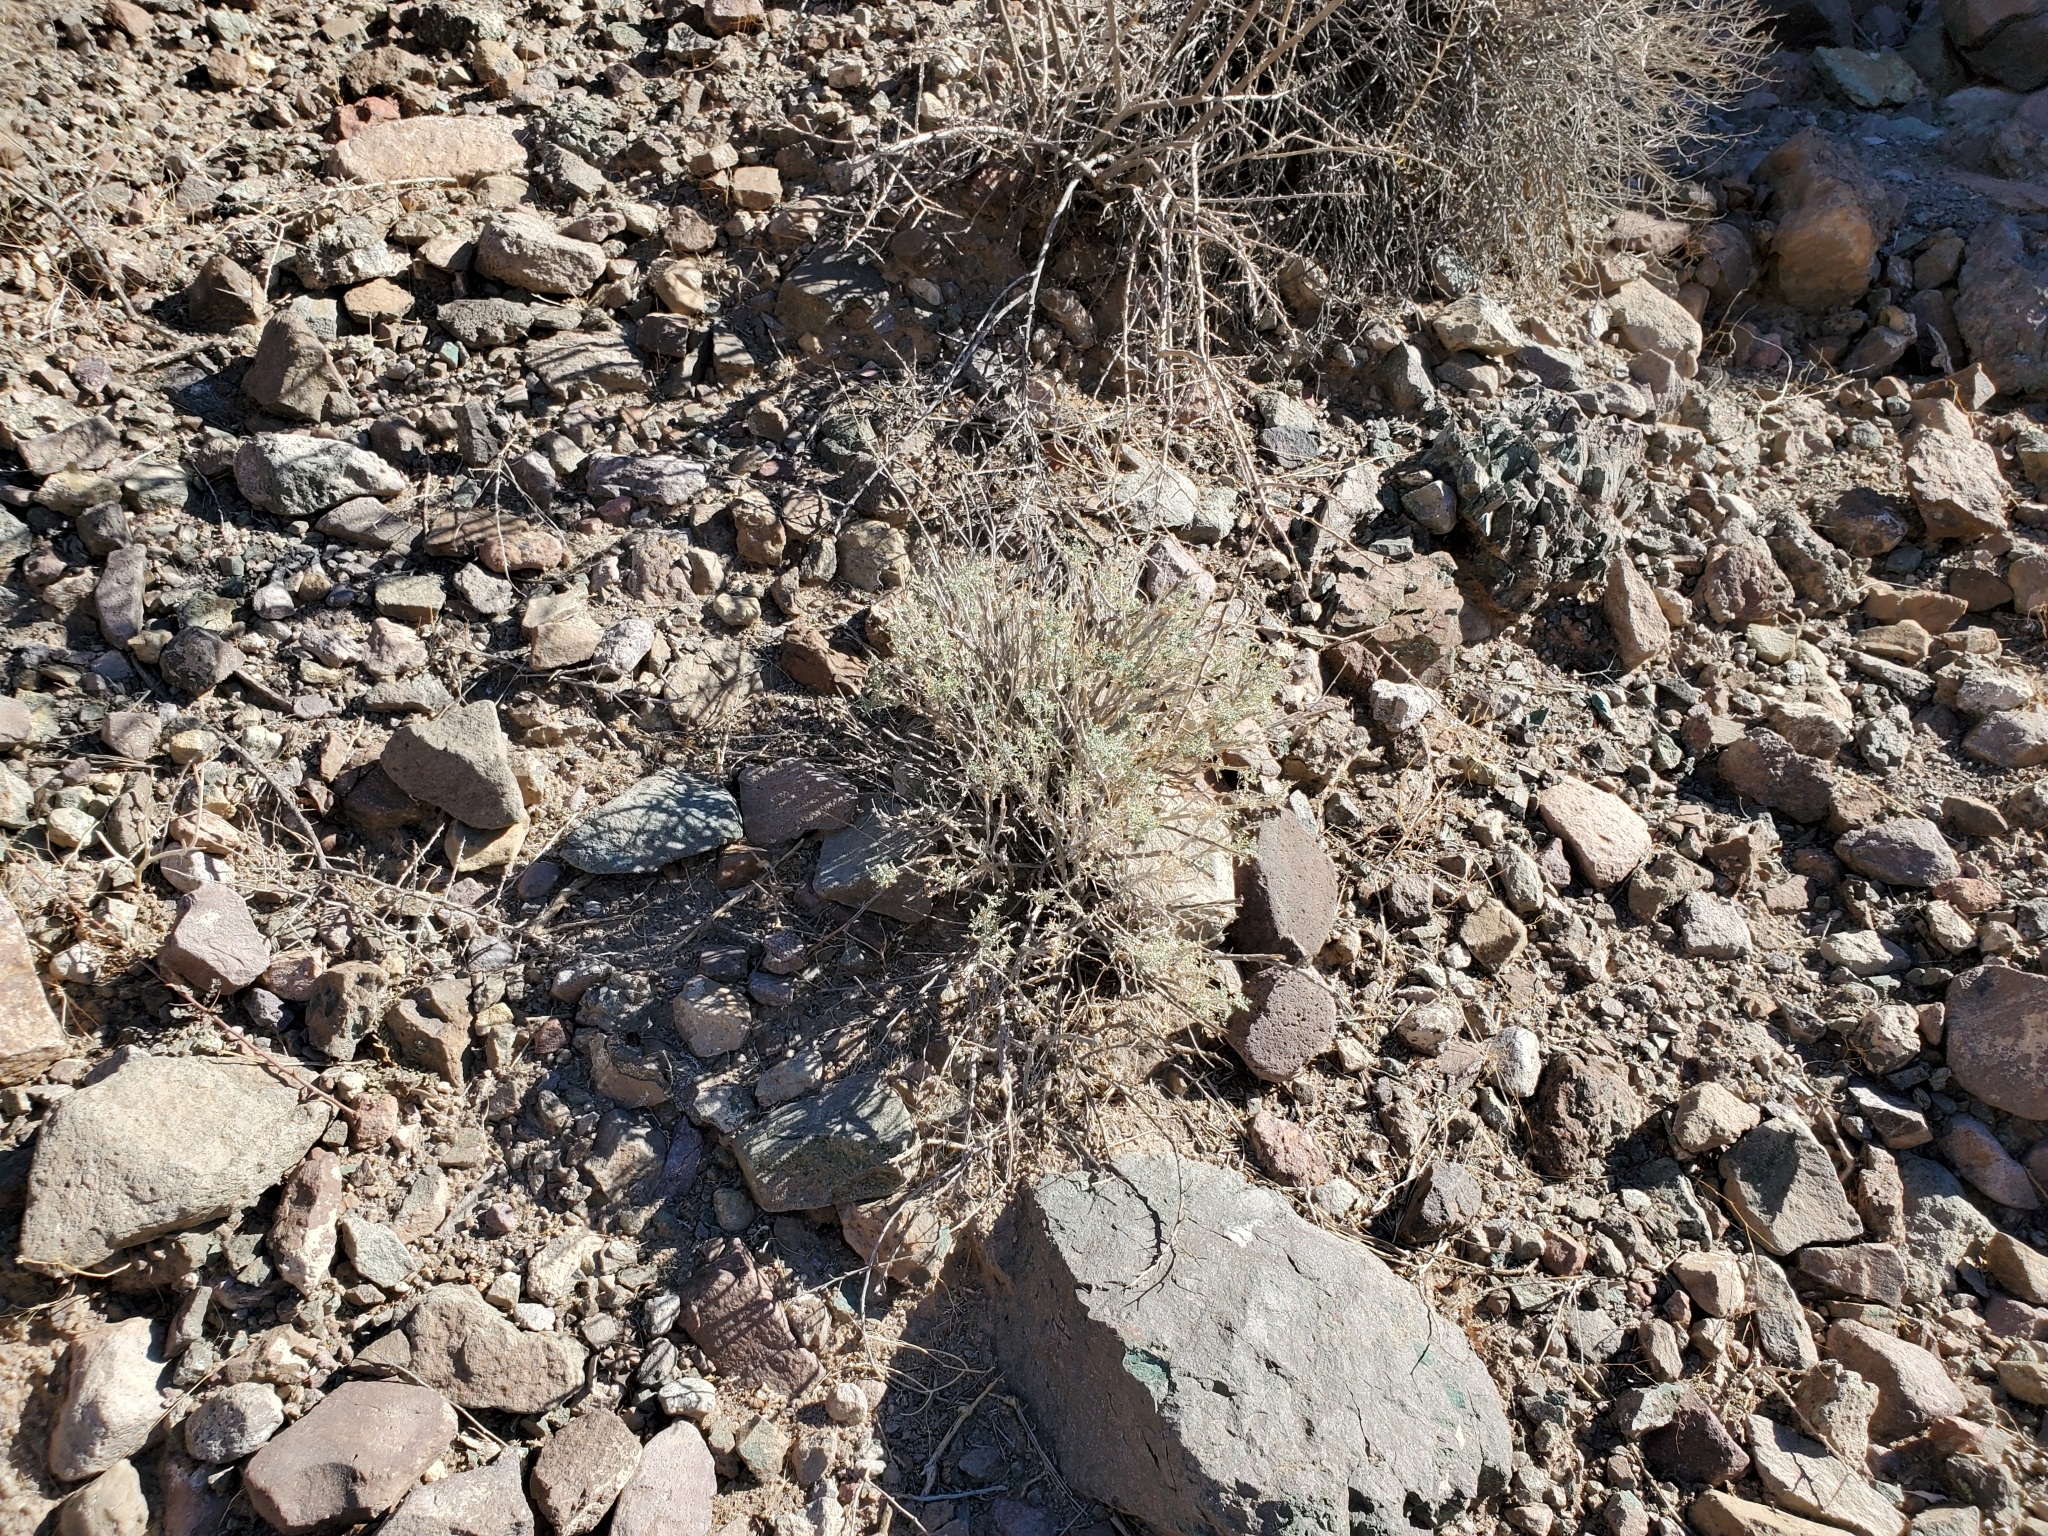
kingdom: Plantae
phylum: Tracheophyta
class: Magnoliopsida
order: Asterales
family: Asteraceae
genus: Ambrosia
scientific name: Ambrosia dumosa
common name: Bur-sage
